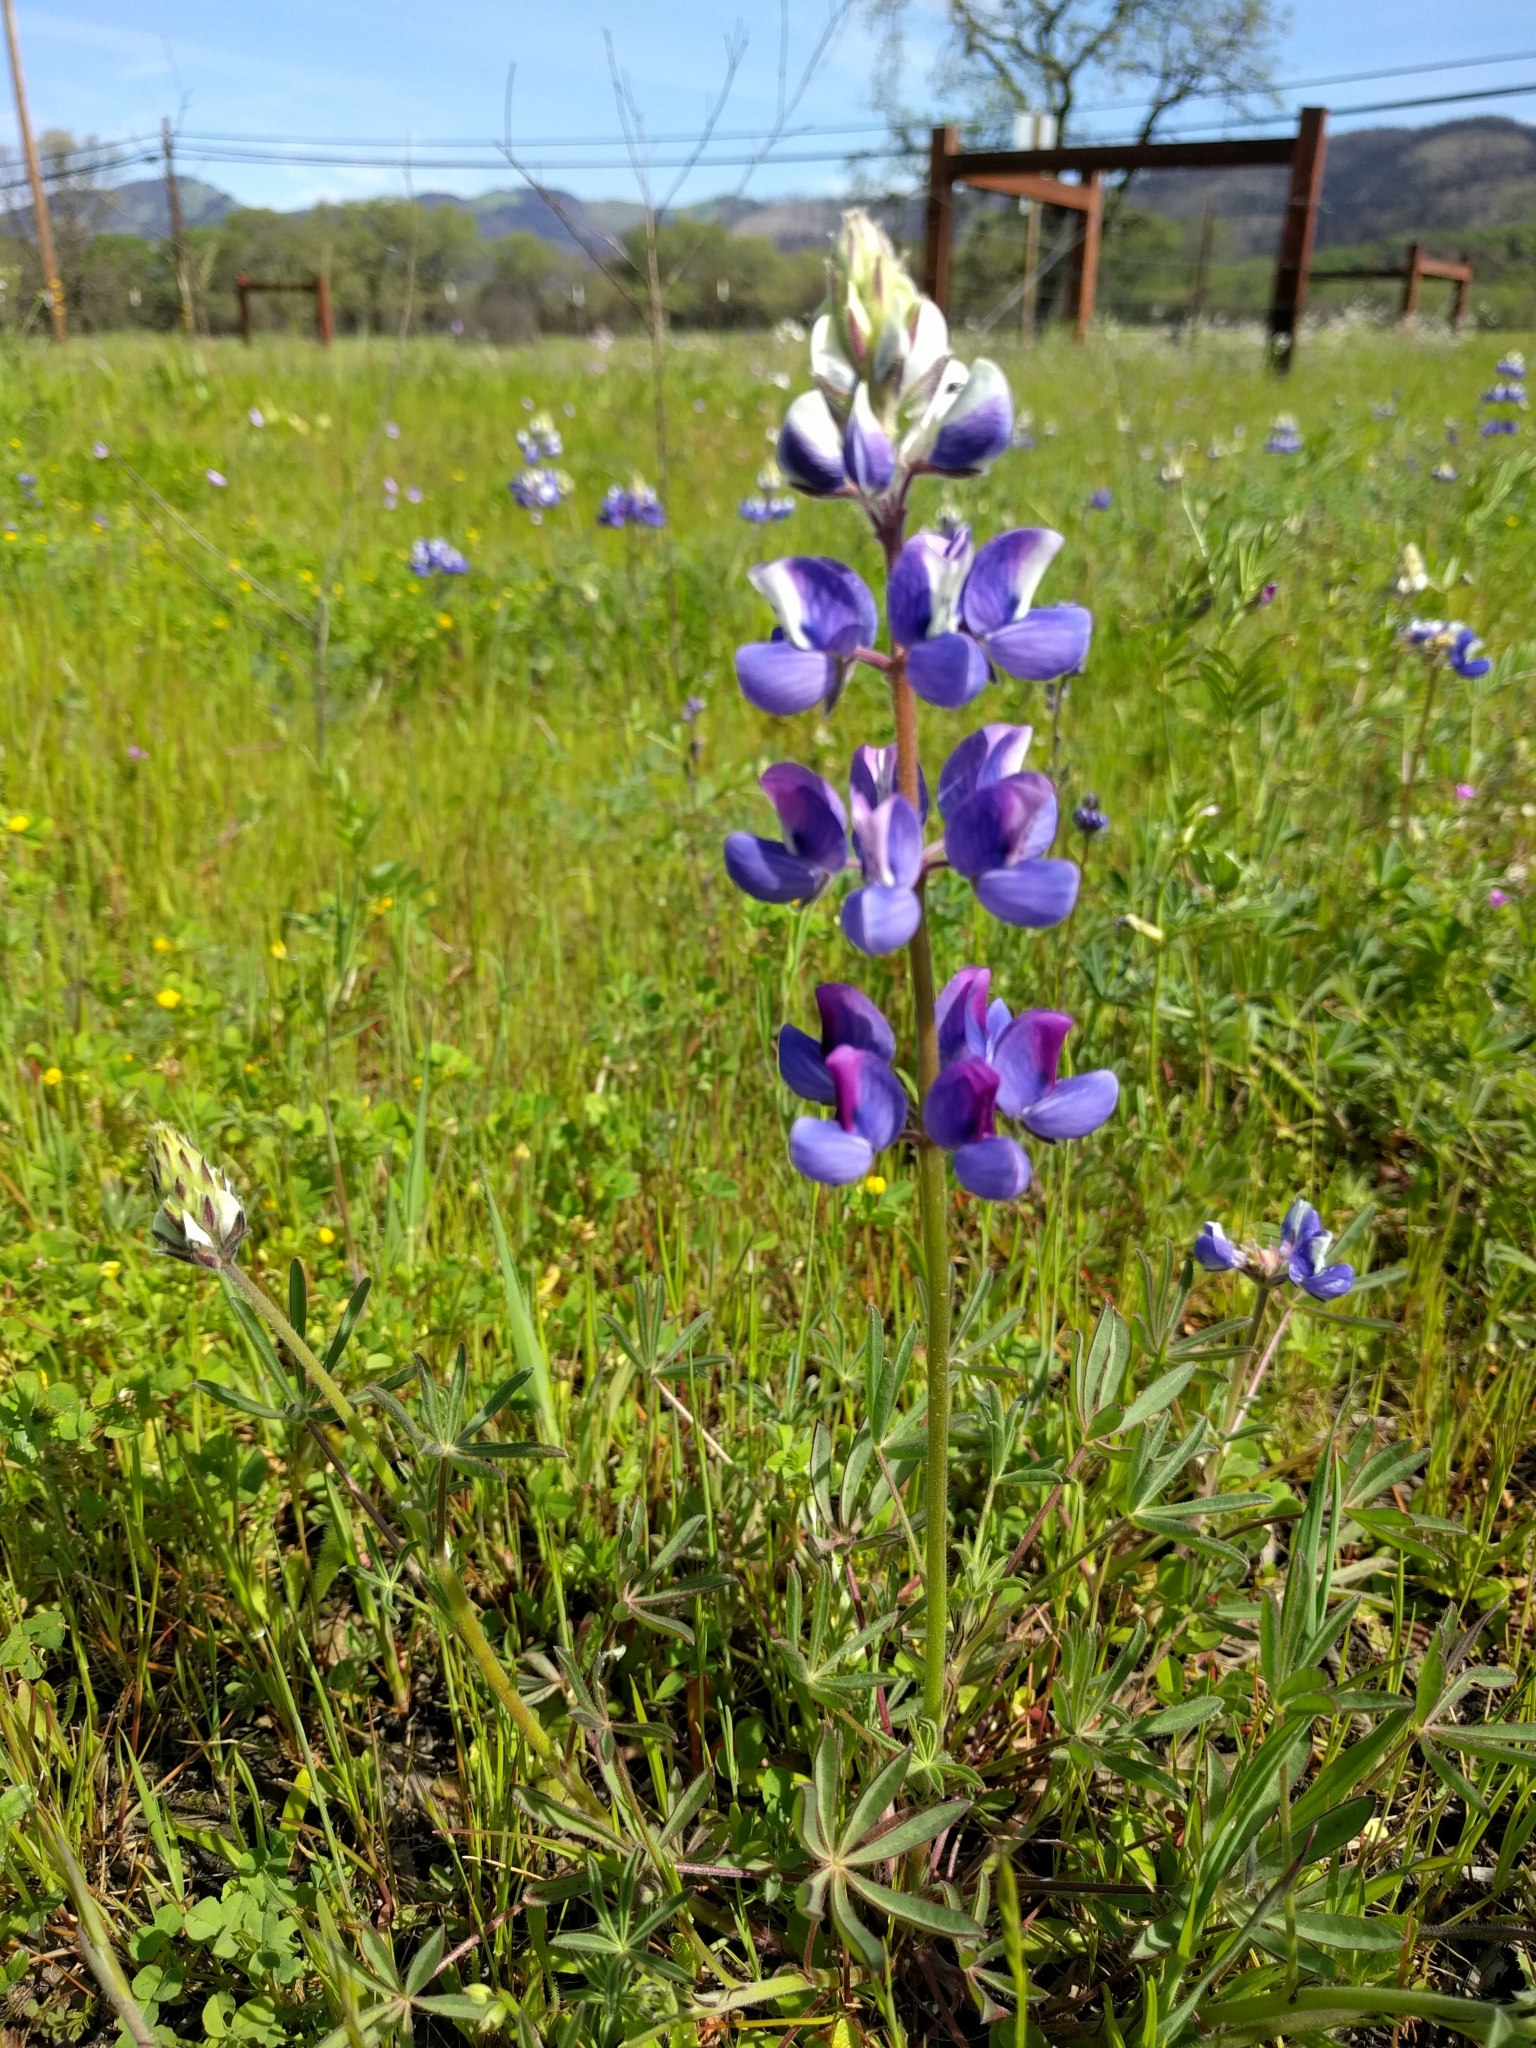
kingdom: Plantae
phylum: Tracheophyta
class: Magnoliopsida
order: Fabales
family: Fabaceae
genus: Lupinus
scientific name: Lupinus nanus
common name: Orean blue lupin
